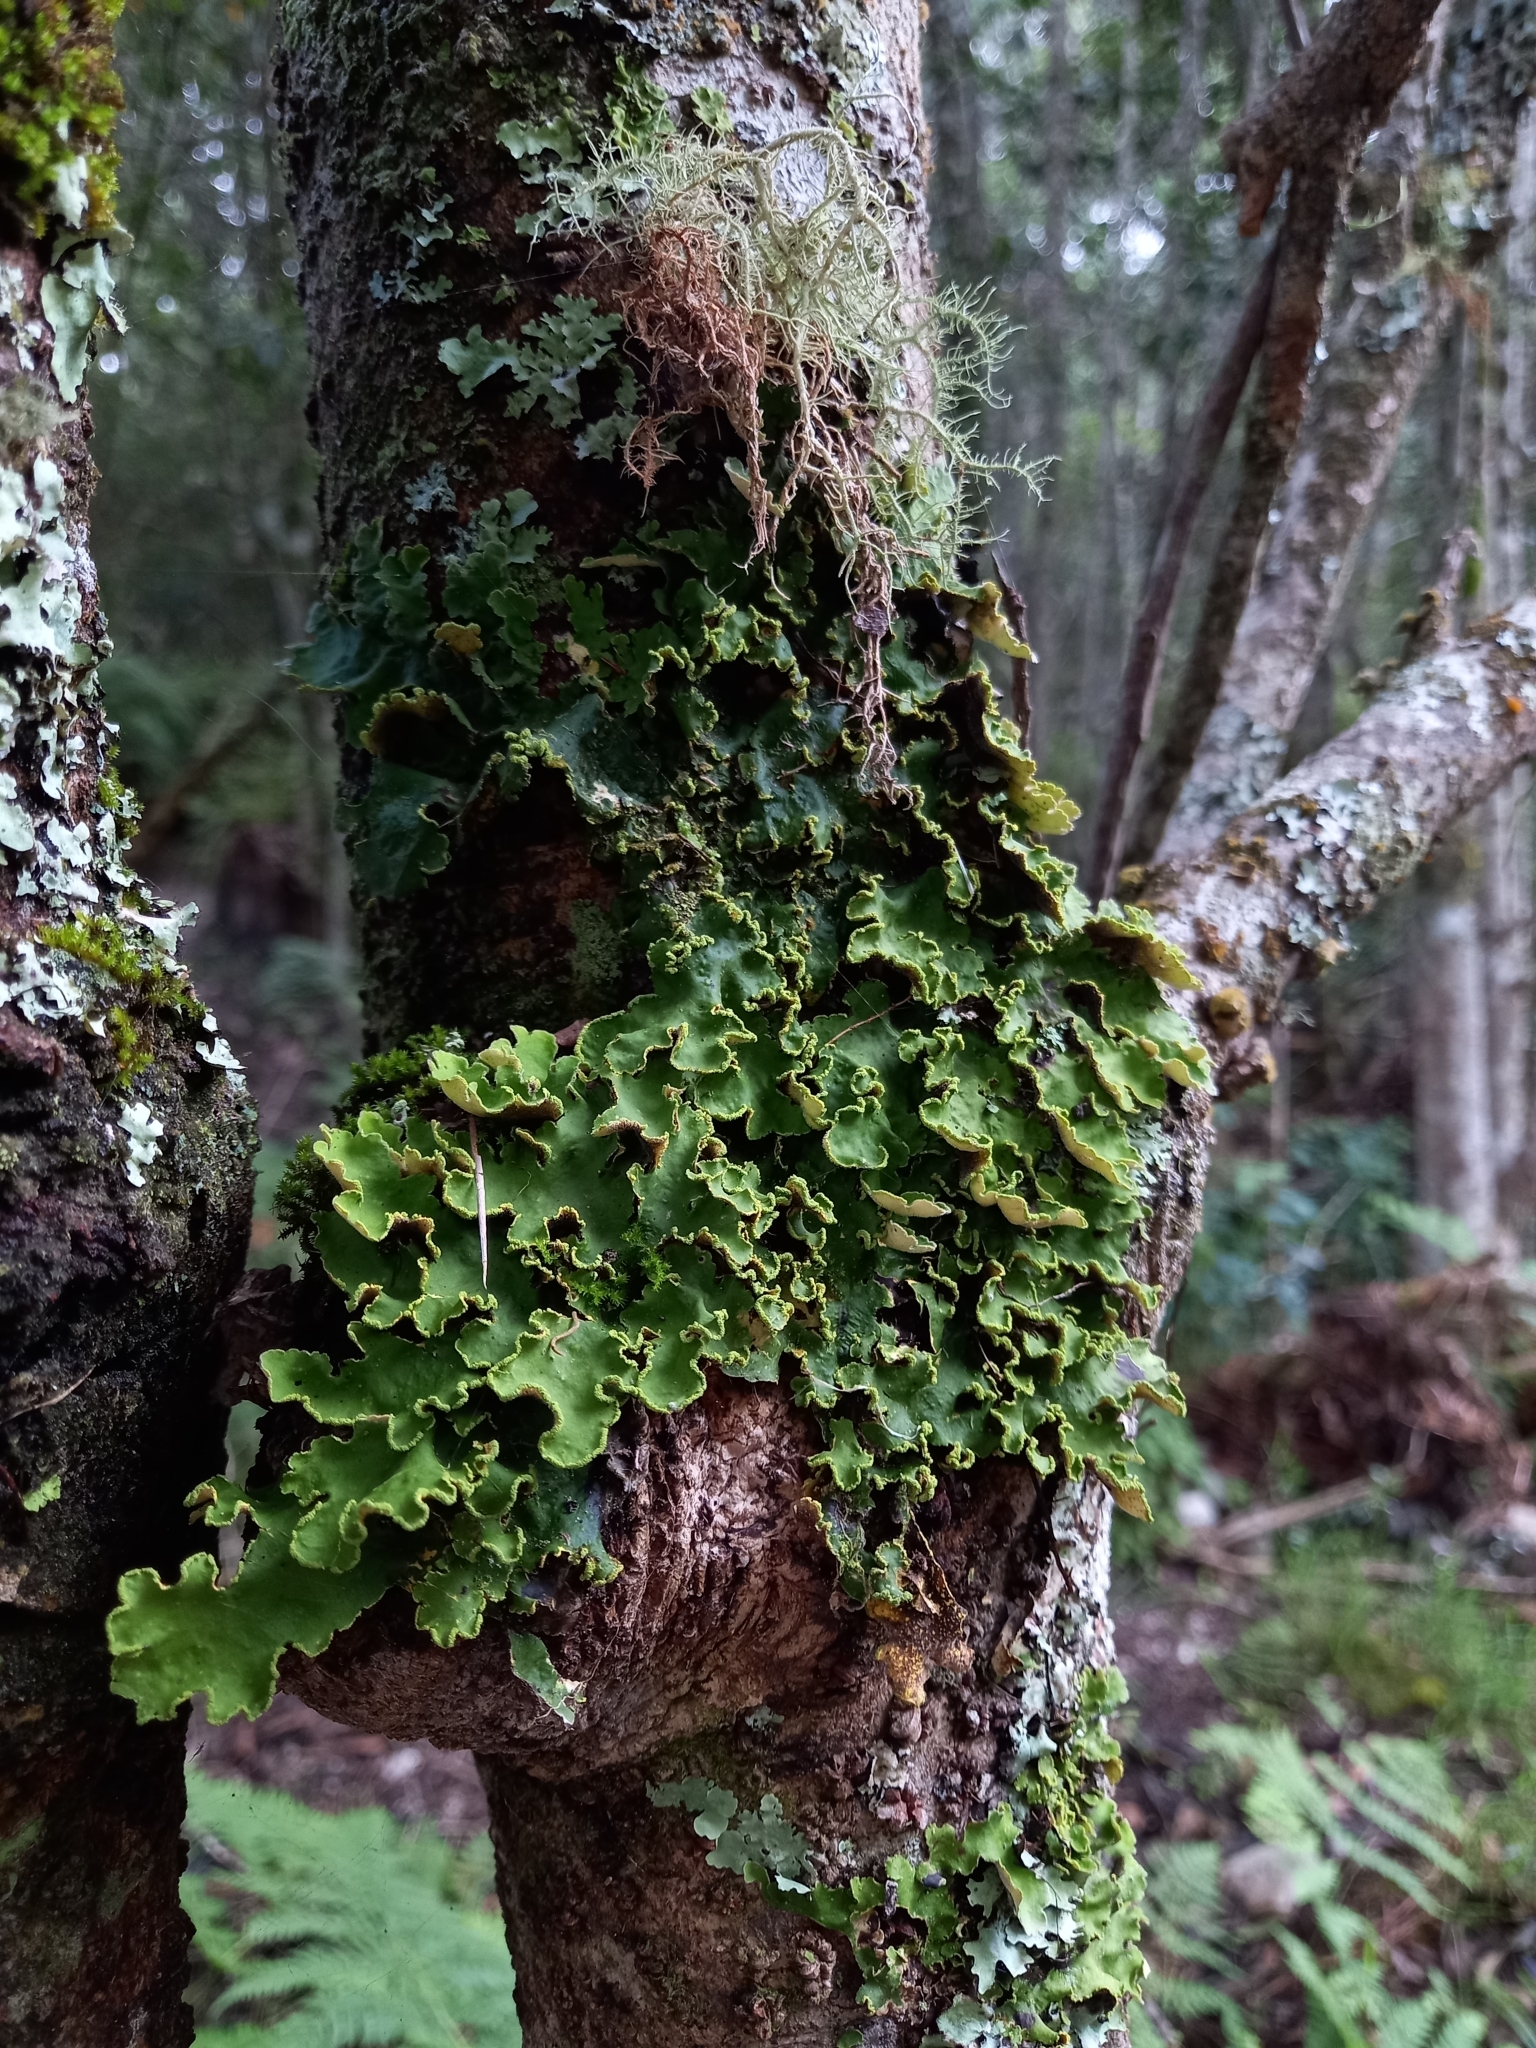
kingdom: Fungi
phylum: Ascomycota
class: Lecanoromycetes
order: Peltigerales
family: Lobariaceae
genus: Pseudocyphellaria
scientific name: Pseudocyphellaria aurata
